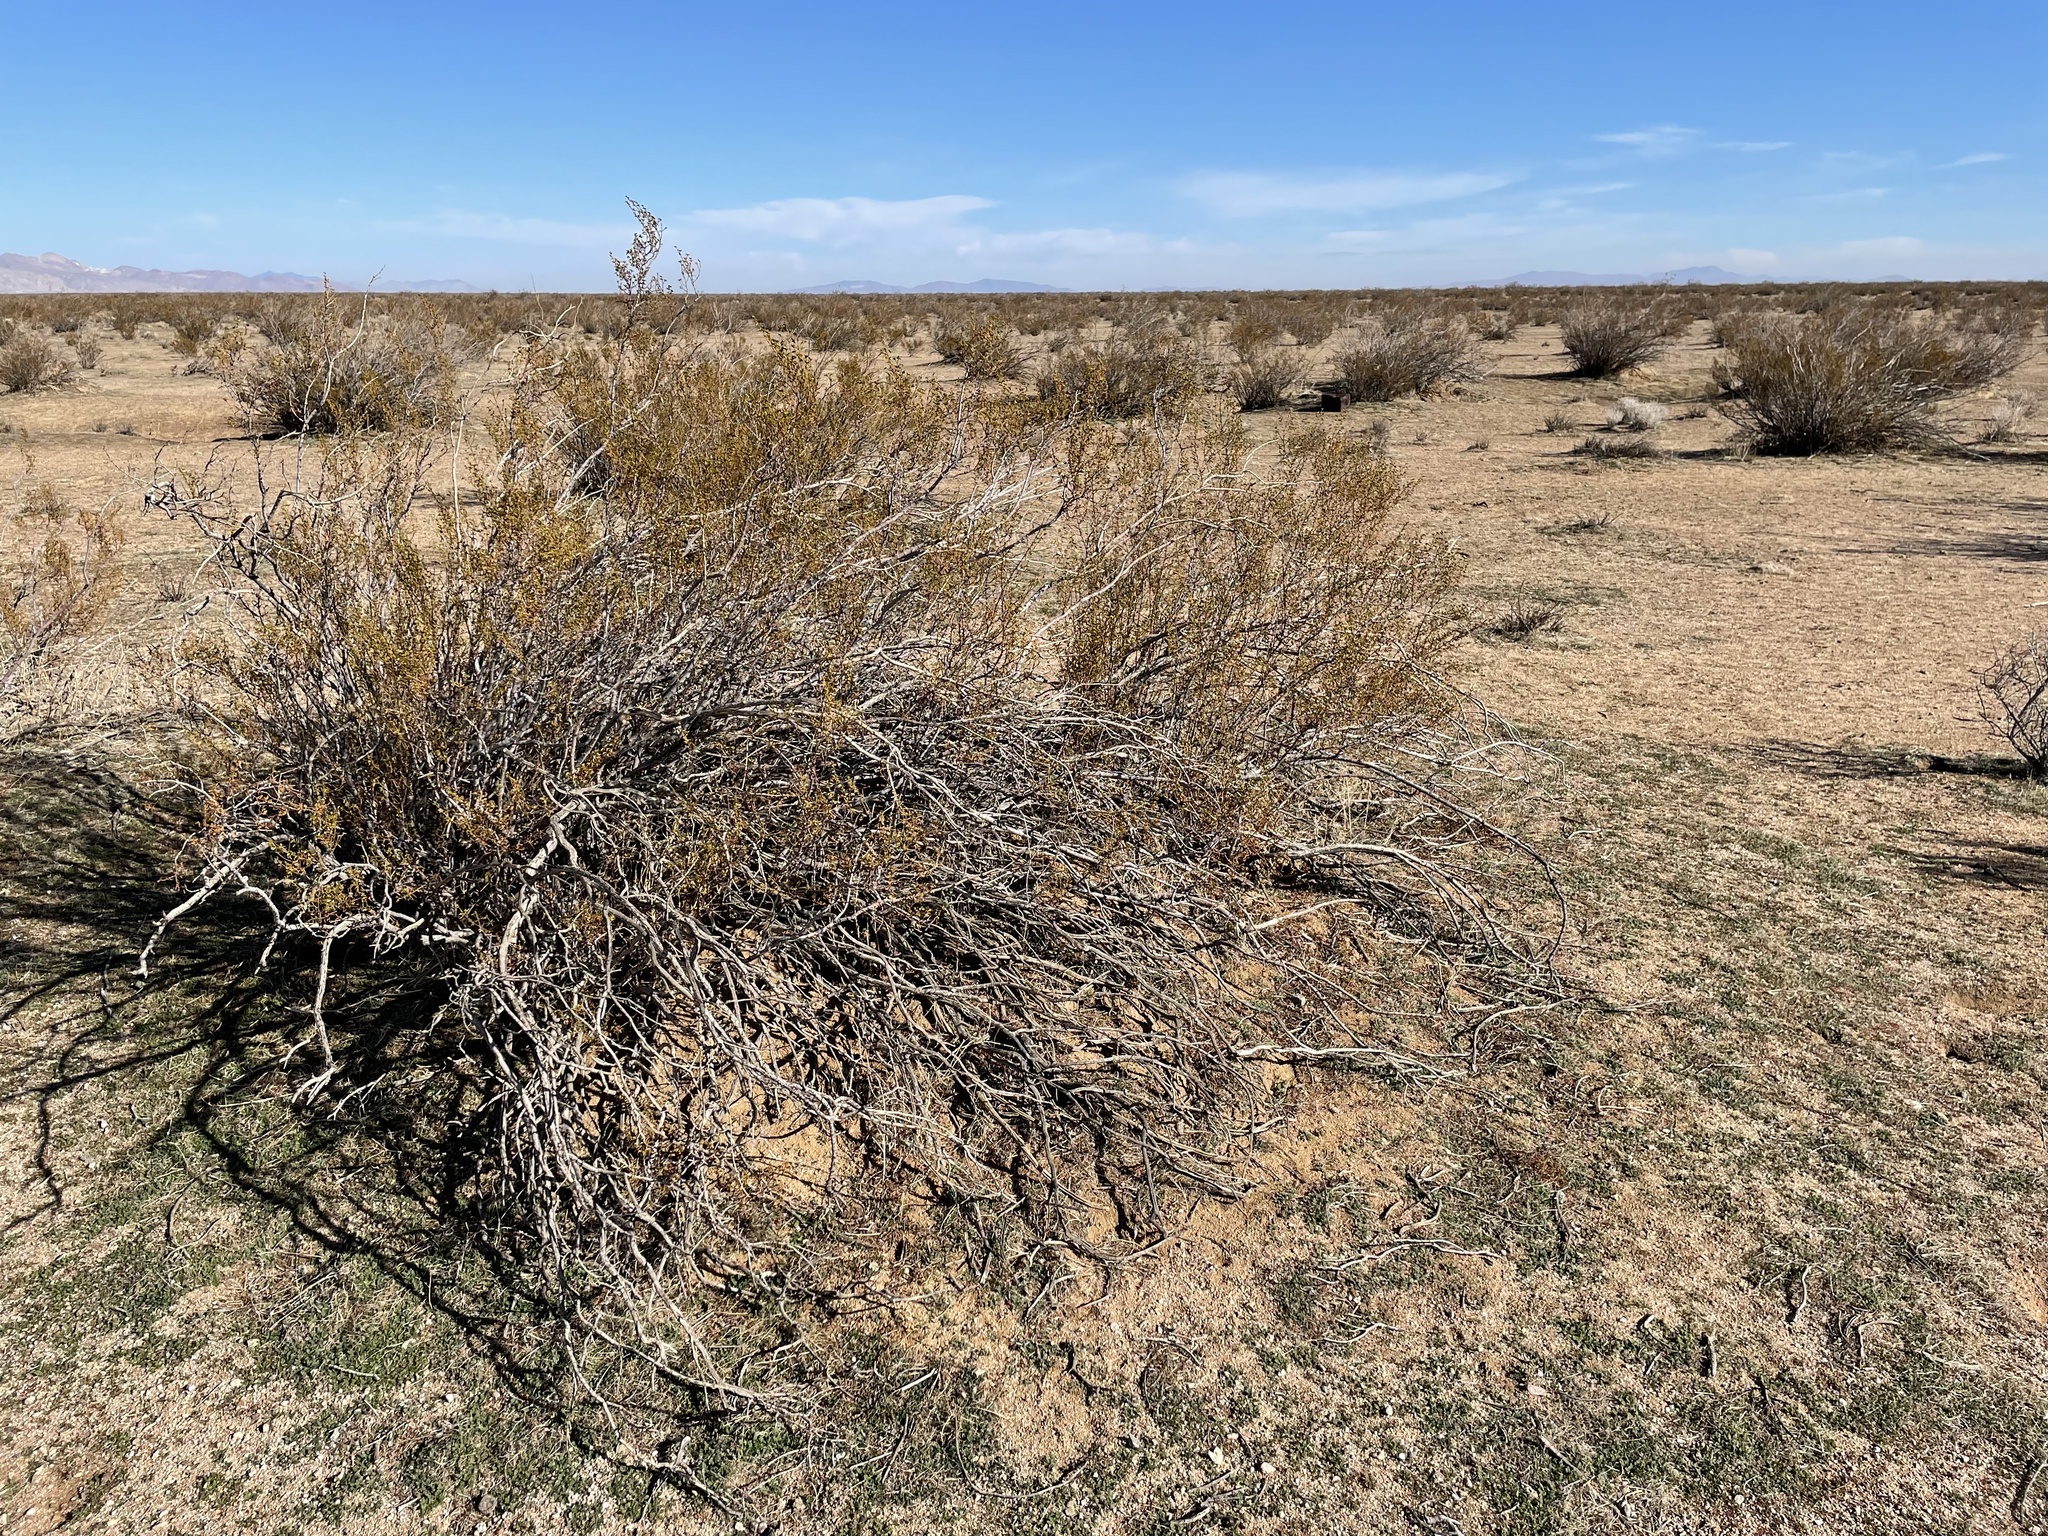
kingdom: Plantae
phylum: Tracheophyta
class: Magnoliopsida
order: Zygophyllales
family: Zygophyllaceae
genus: Larrea
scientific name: Larrea tridentata
